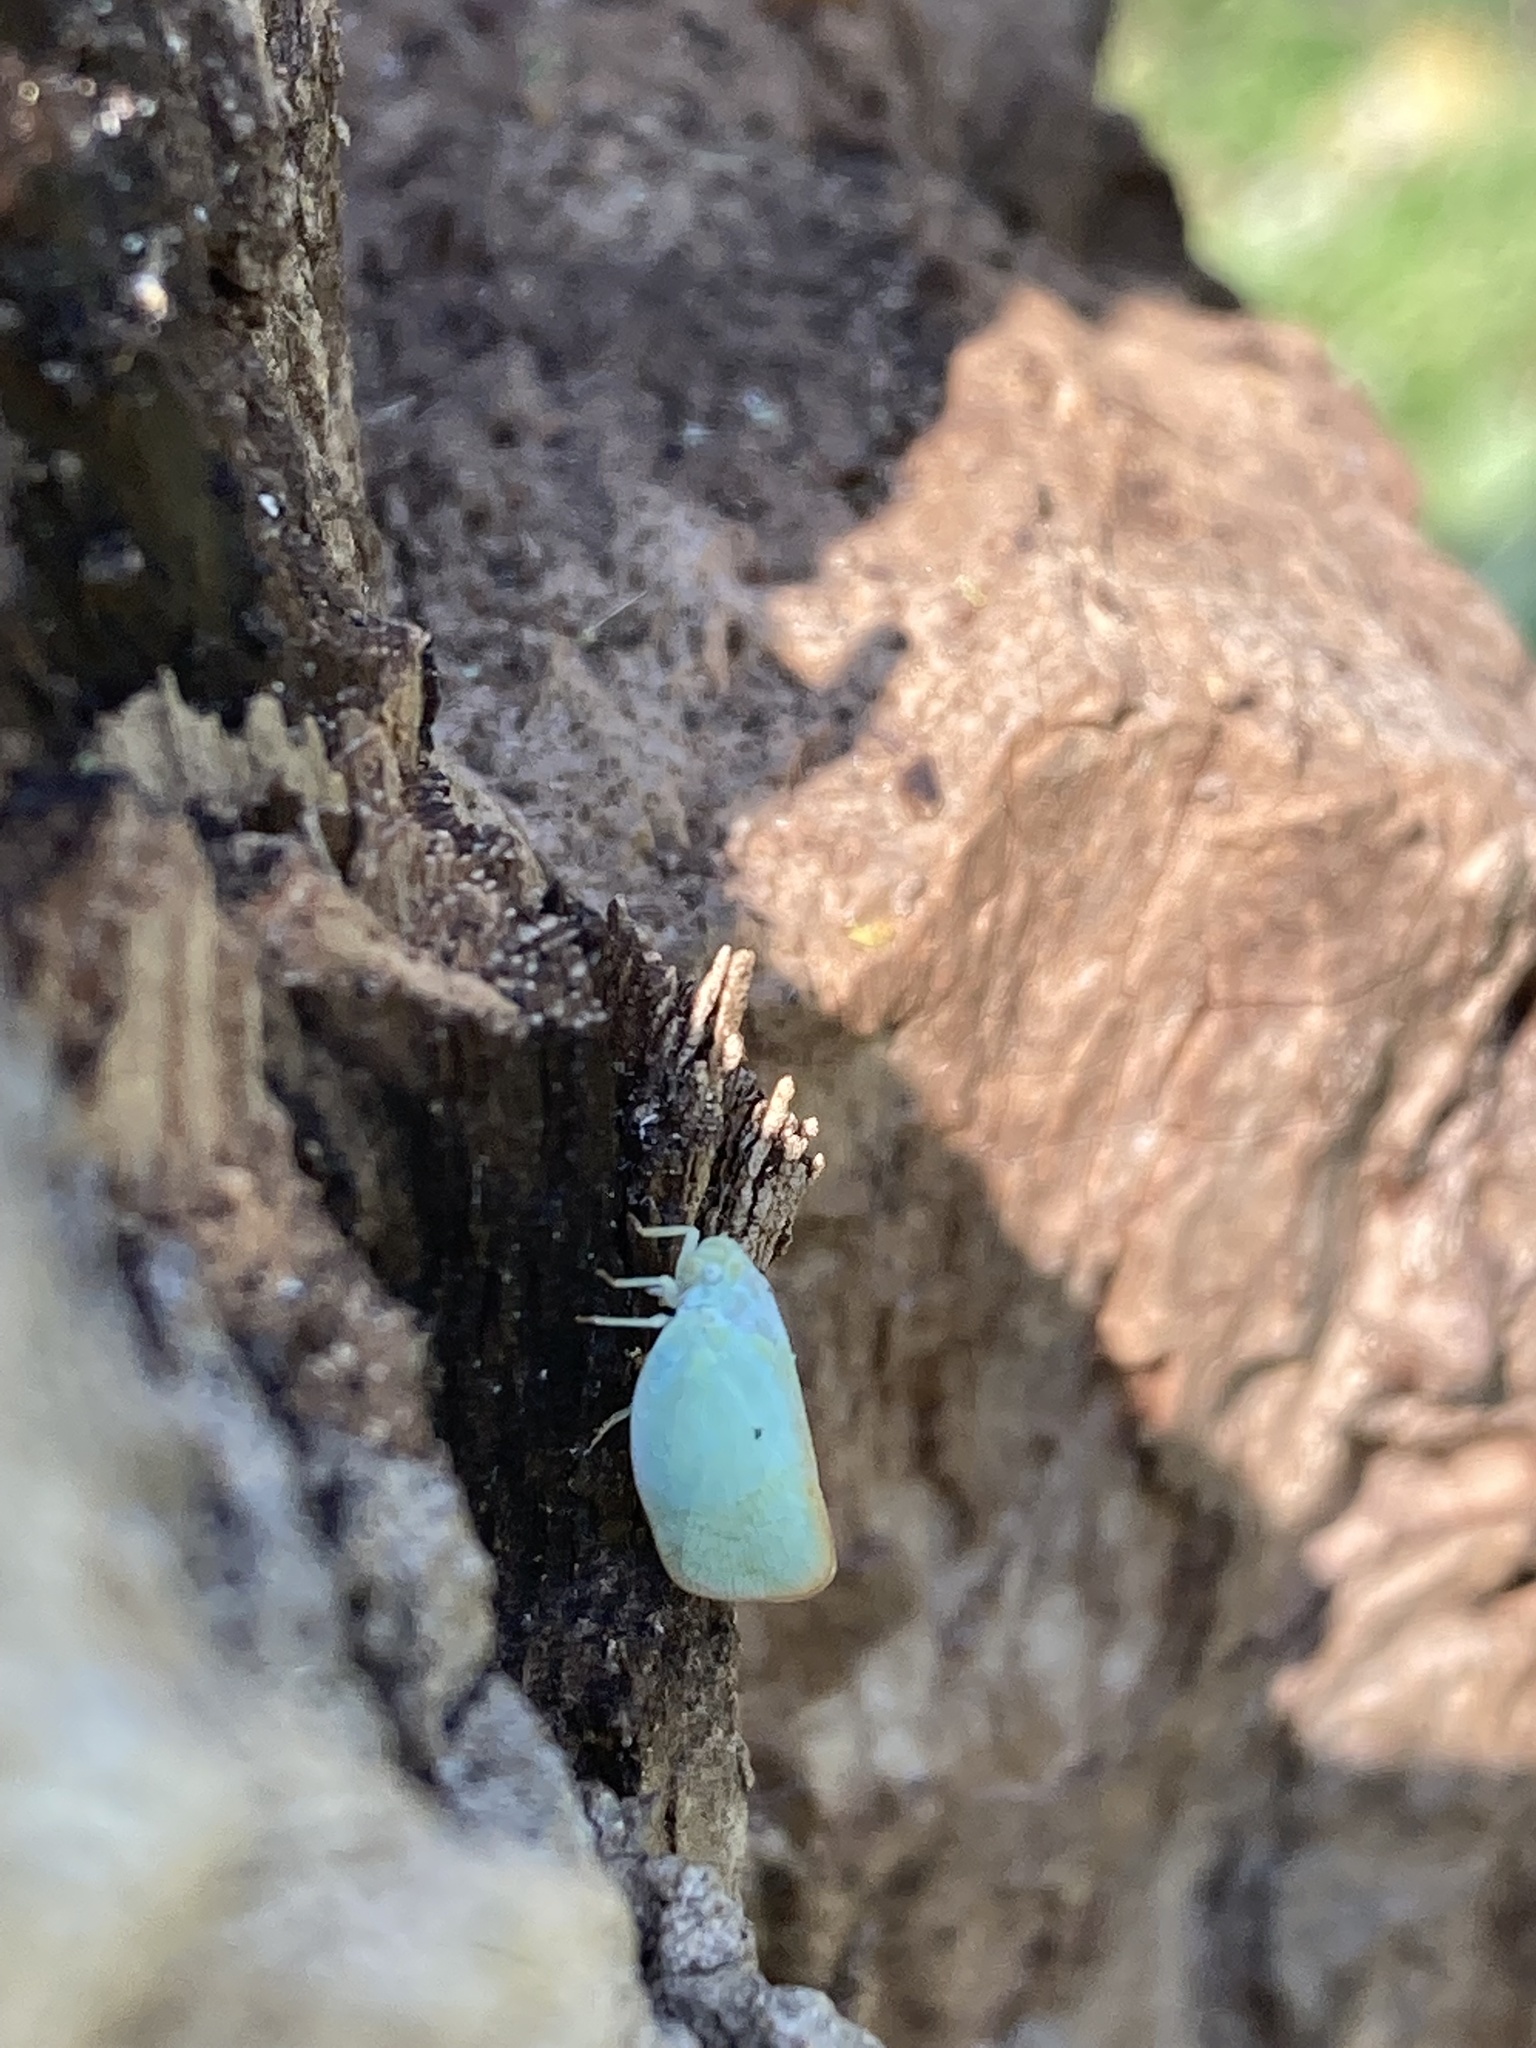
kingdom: Animalia
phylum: Arthropoda
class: Insecta
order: Hemiptera
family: Flatidae
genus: Ormenoides
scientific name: Ormenoides venusta
